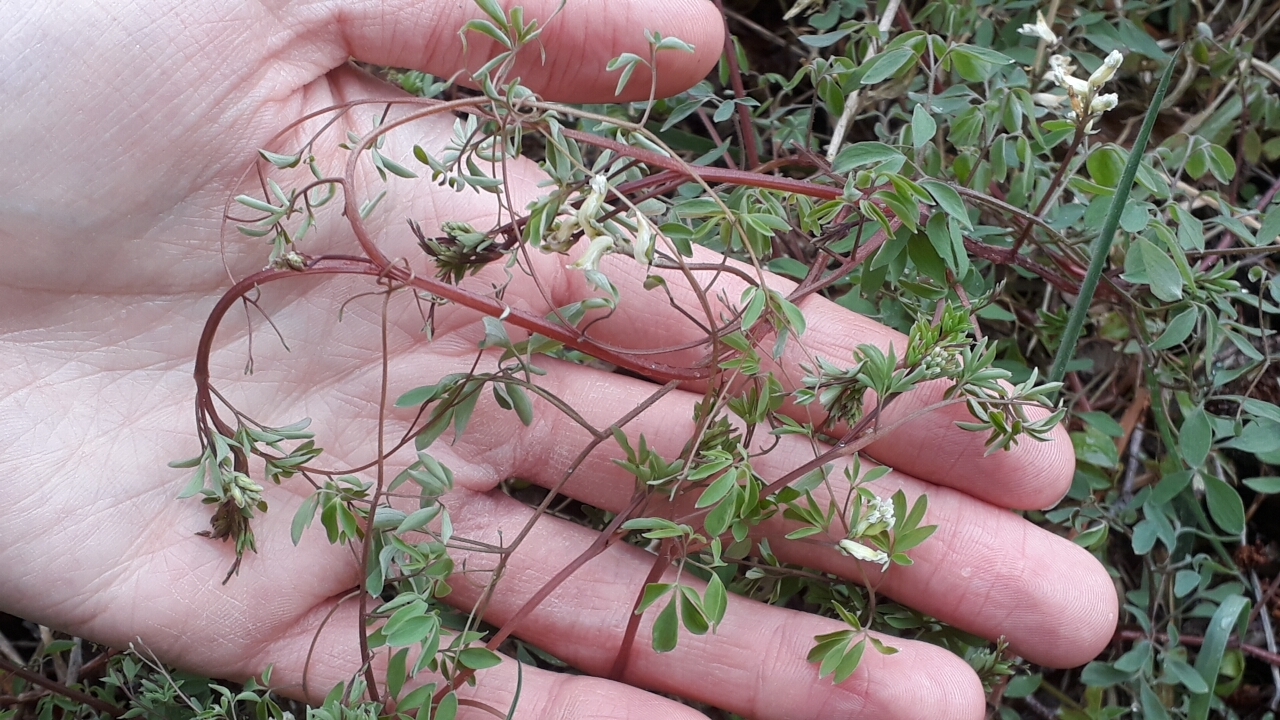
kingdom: Plantae
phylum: Tracheophyta
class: Magnoliopsida
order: Ranunculales
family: Papaveraceae
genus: Ceratocapnos
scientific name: Ceratocapnos claviculata
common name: Climbing corydalis
